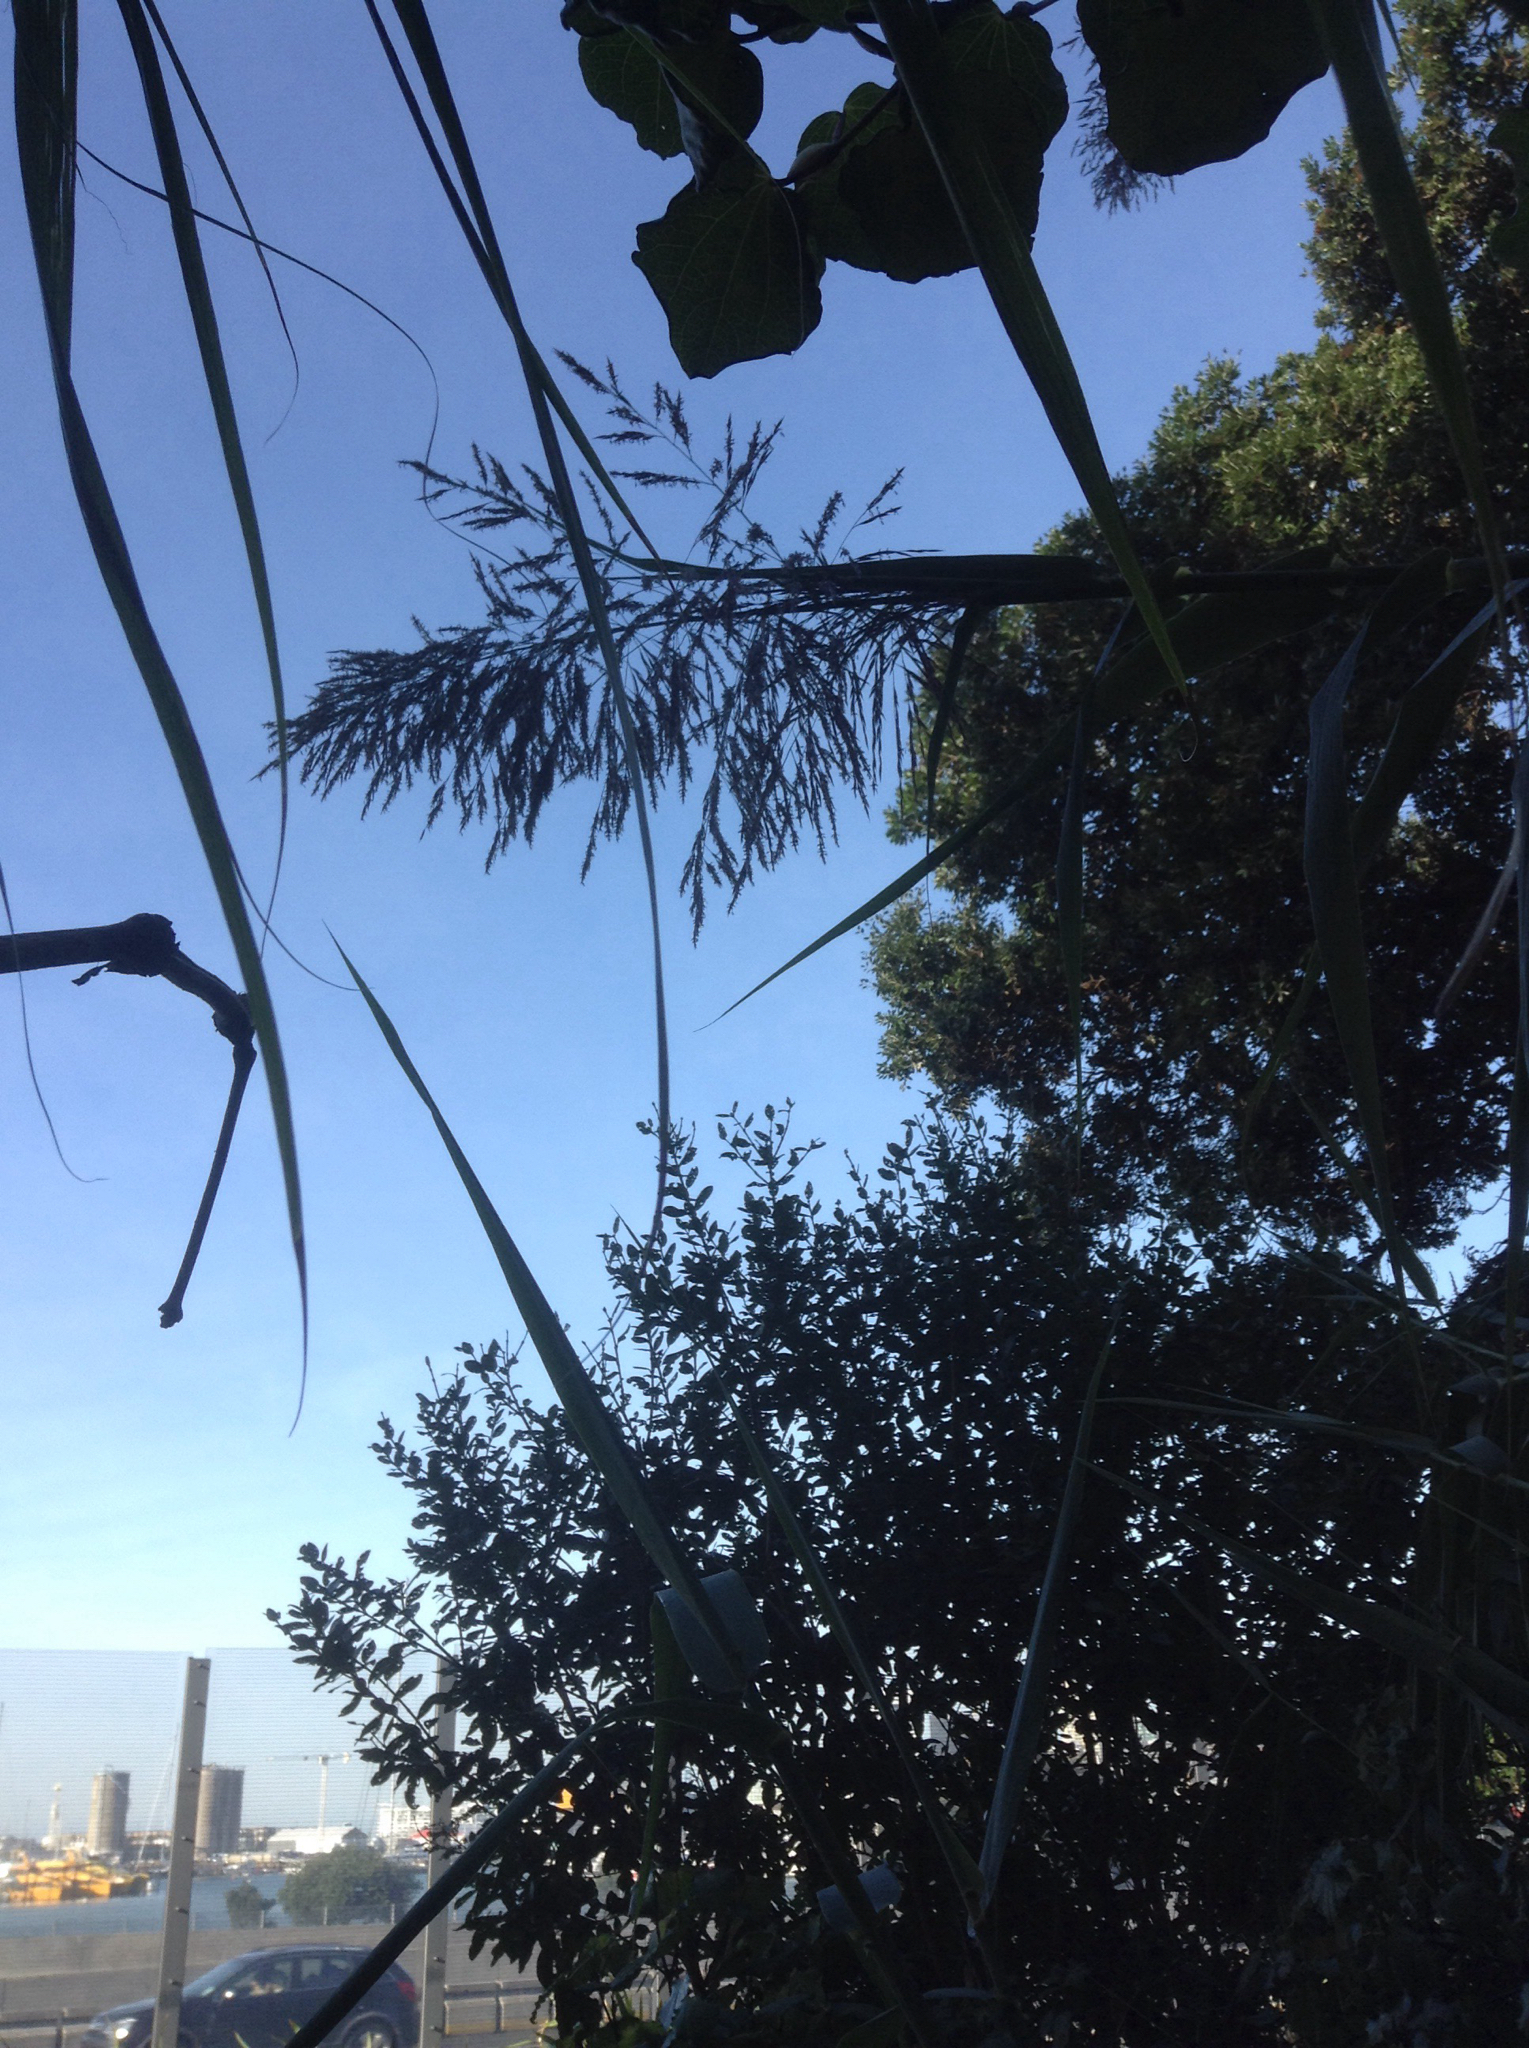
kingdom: Plantae
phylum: Tracheophyta
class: Liliopsida
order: Poales
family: Poaceae
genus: Arundo
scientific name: Arundo donax
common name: Giant reed
